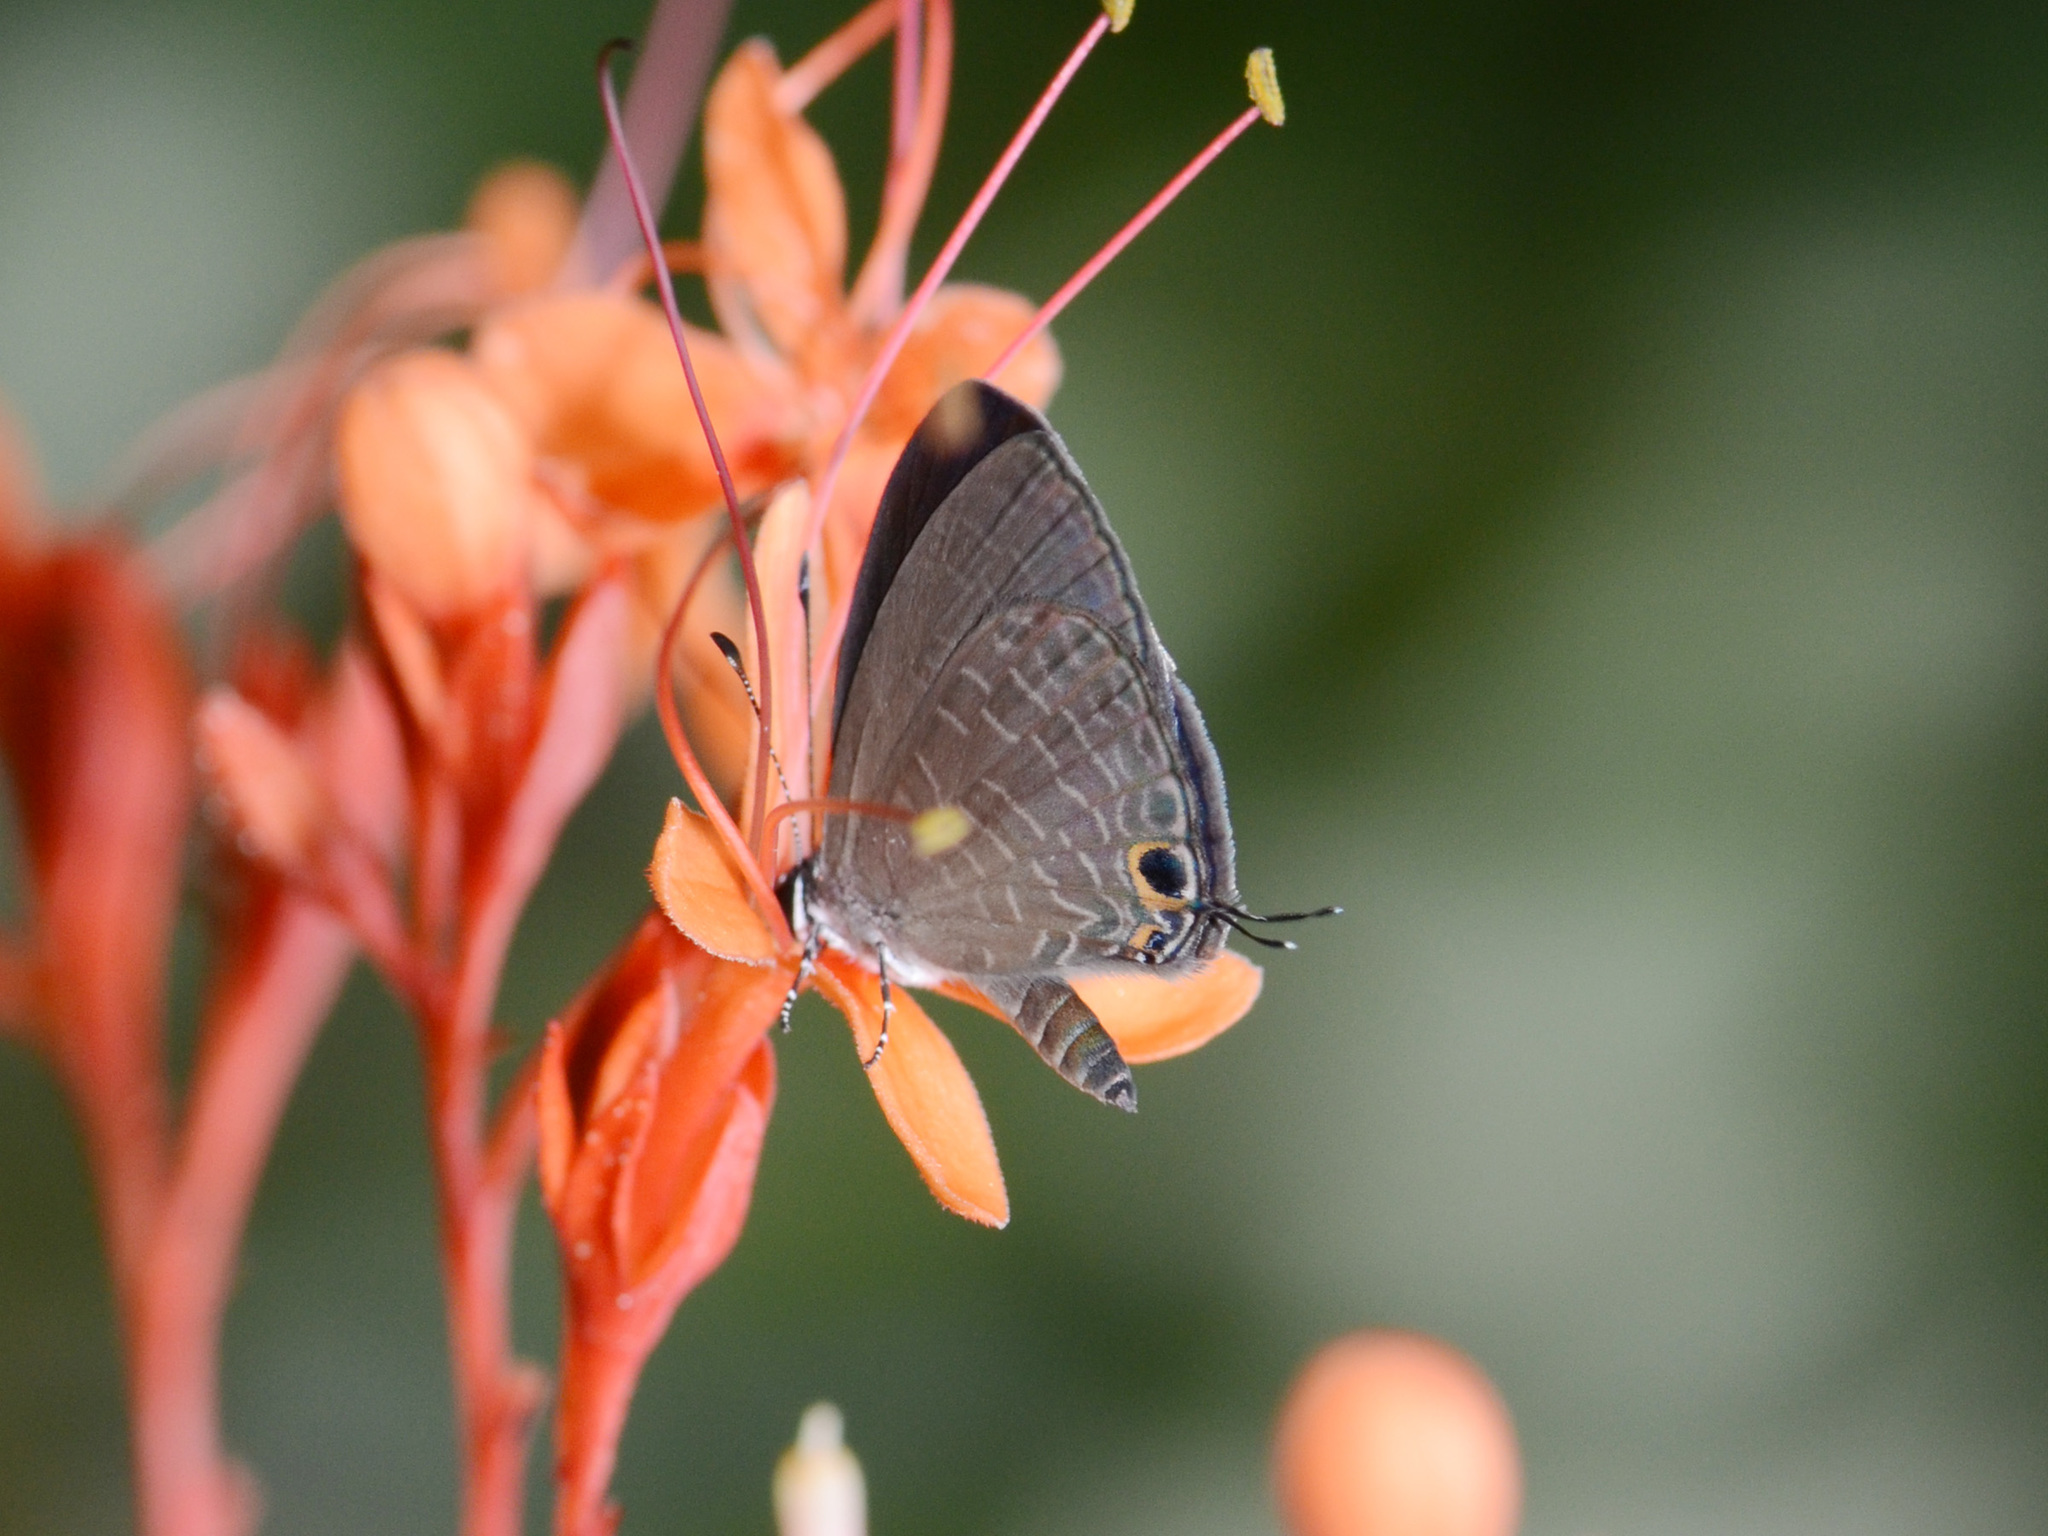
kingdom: Animalia
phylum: Arthropoda
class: Insecta
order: Lepidoptera
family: Lycaenidae
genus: Jamides
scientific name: Jamides bochus
